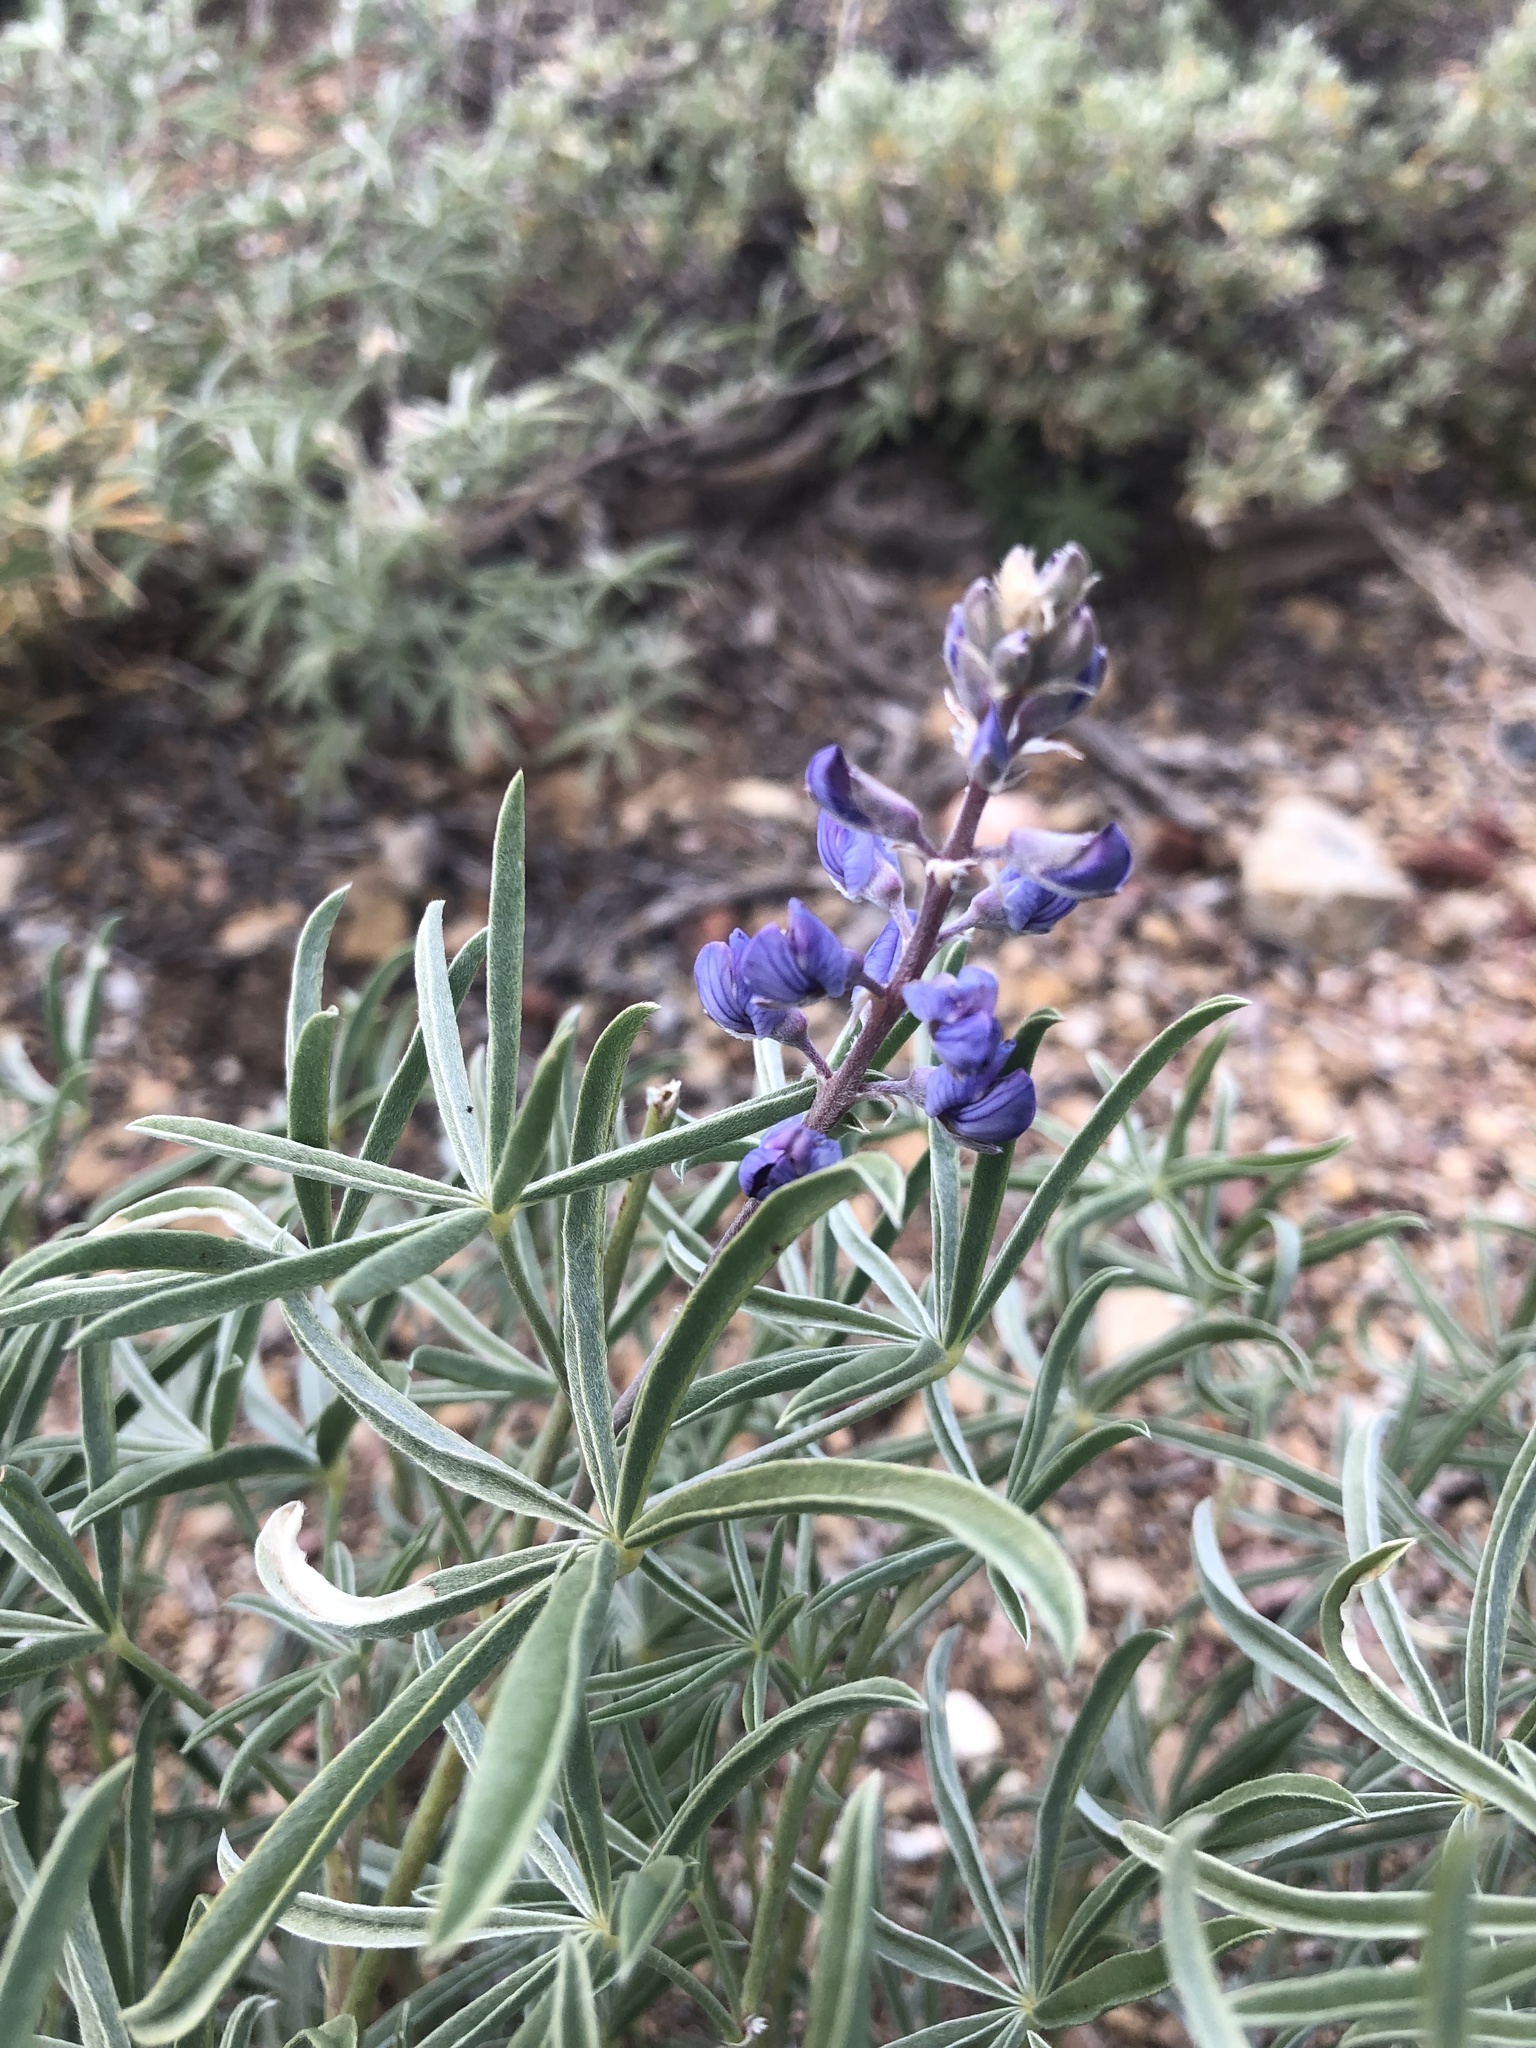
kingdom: Plantae
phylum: Tracheophyta
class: Magnoliopsida
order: Fabales
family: Fabaceae
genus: Lupinus
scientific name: Lupinus argenteus
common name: Silvery lupine
